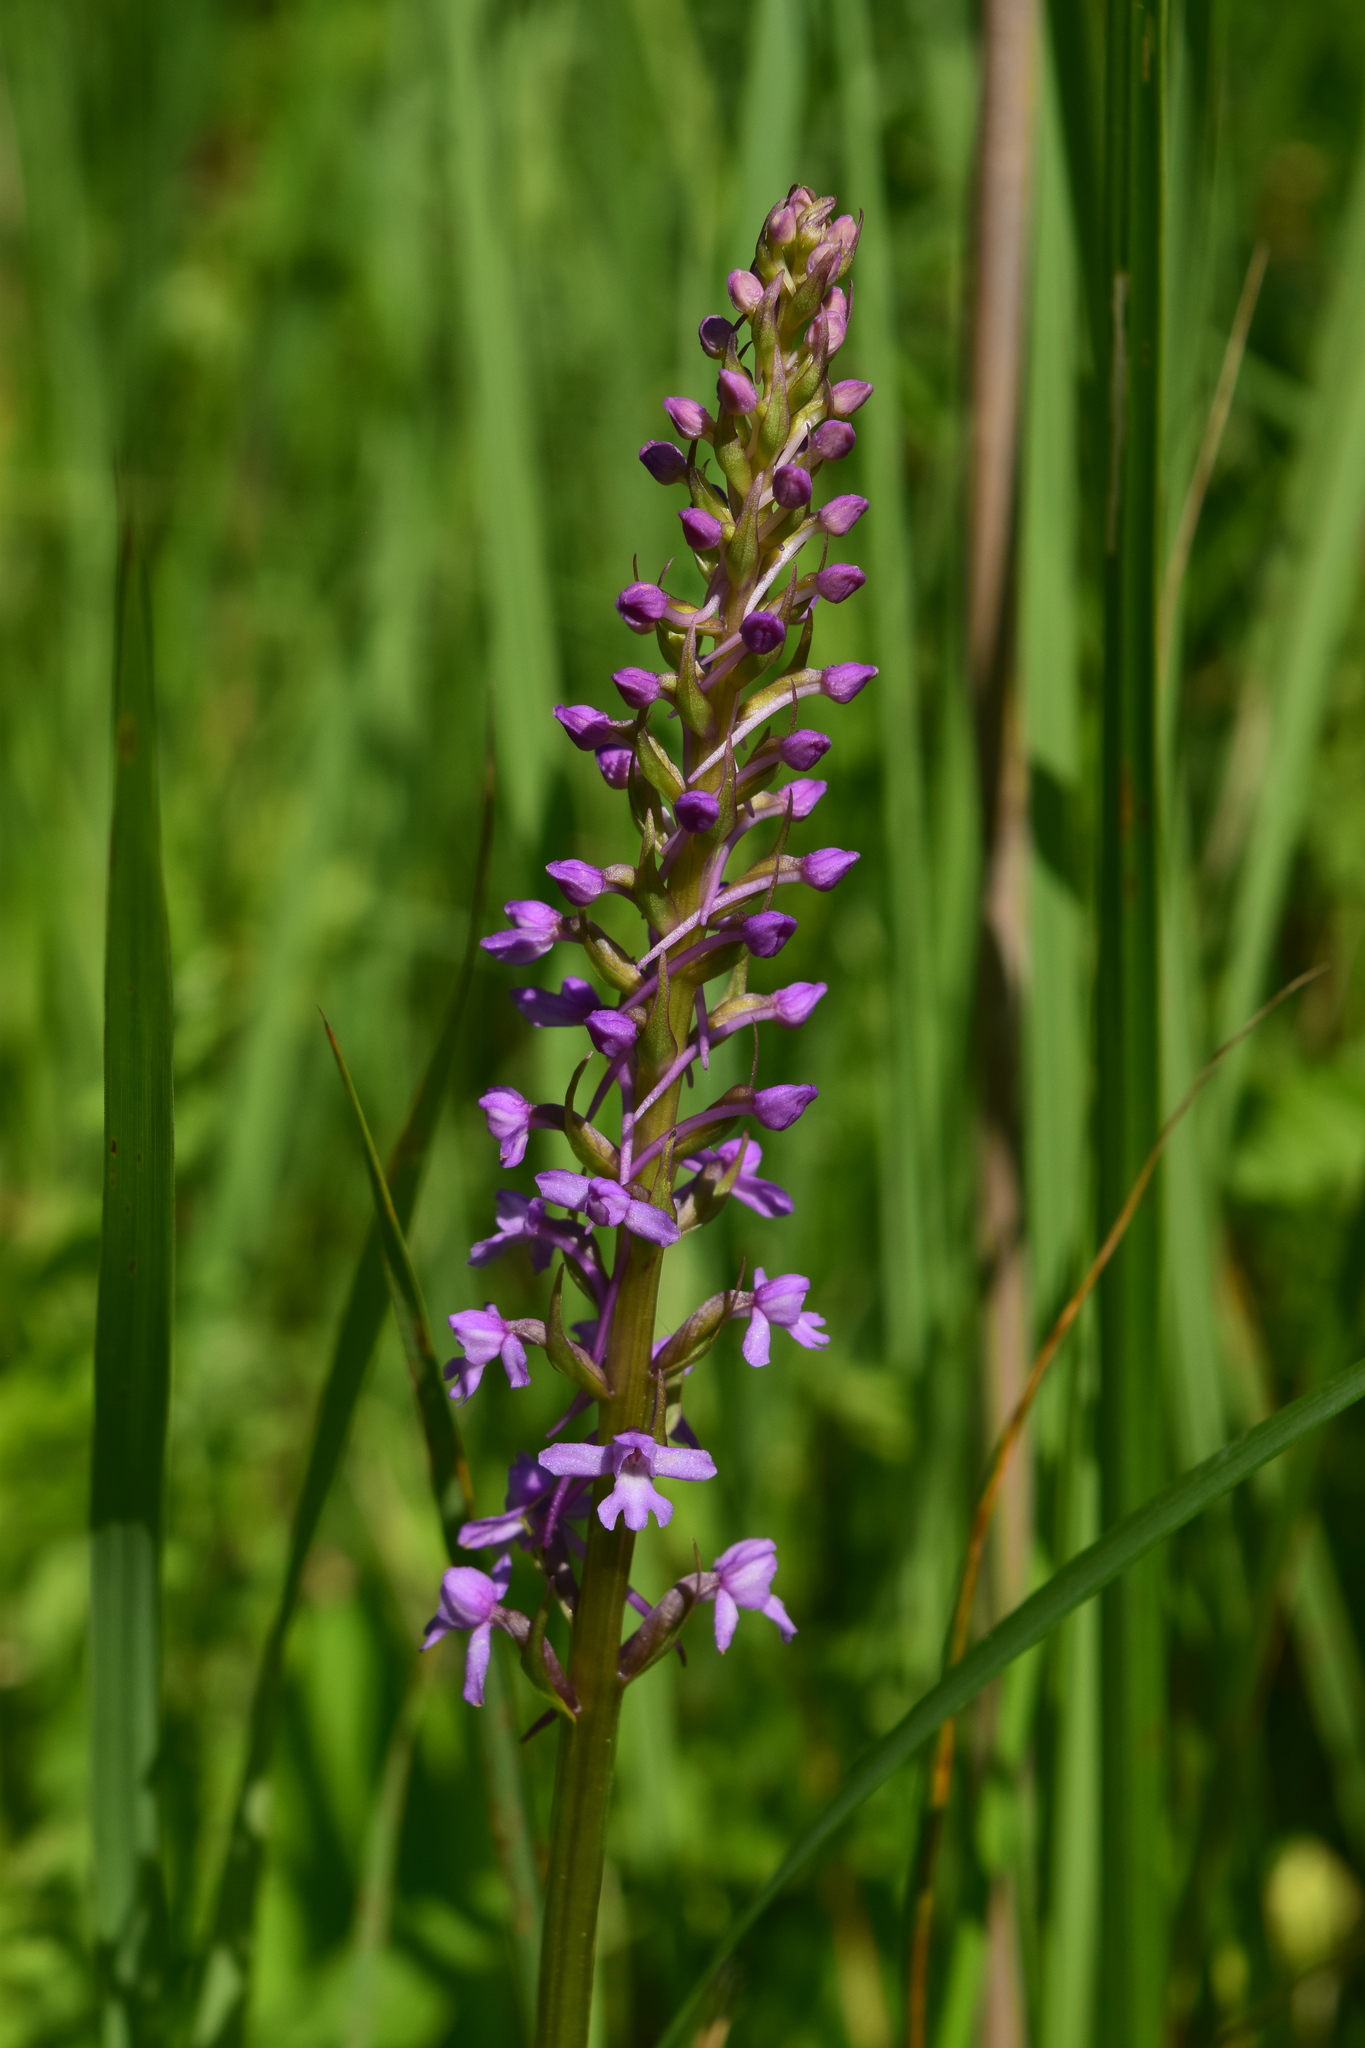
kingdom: Plantae
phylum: Tracheophyta
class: Liliopsida
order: Asparagales
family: Orchidaceae
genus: Gymnadenia
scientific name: Gymnadenia conopsea
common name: Fragrant orchid
